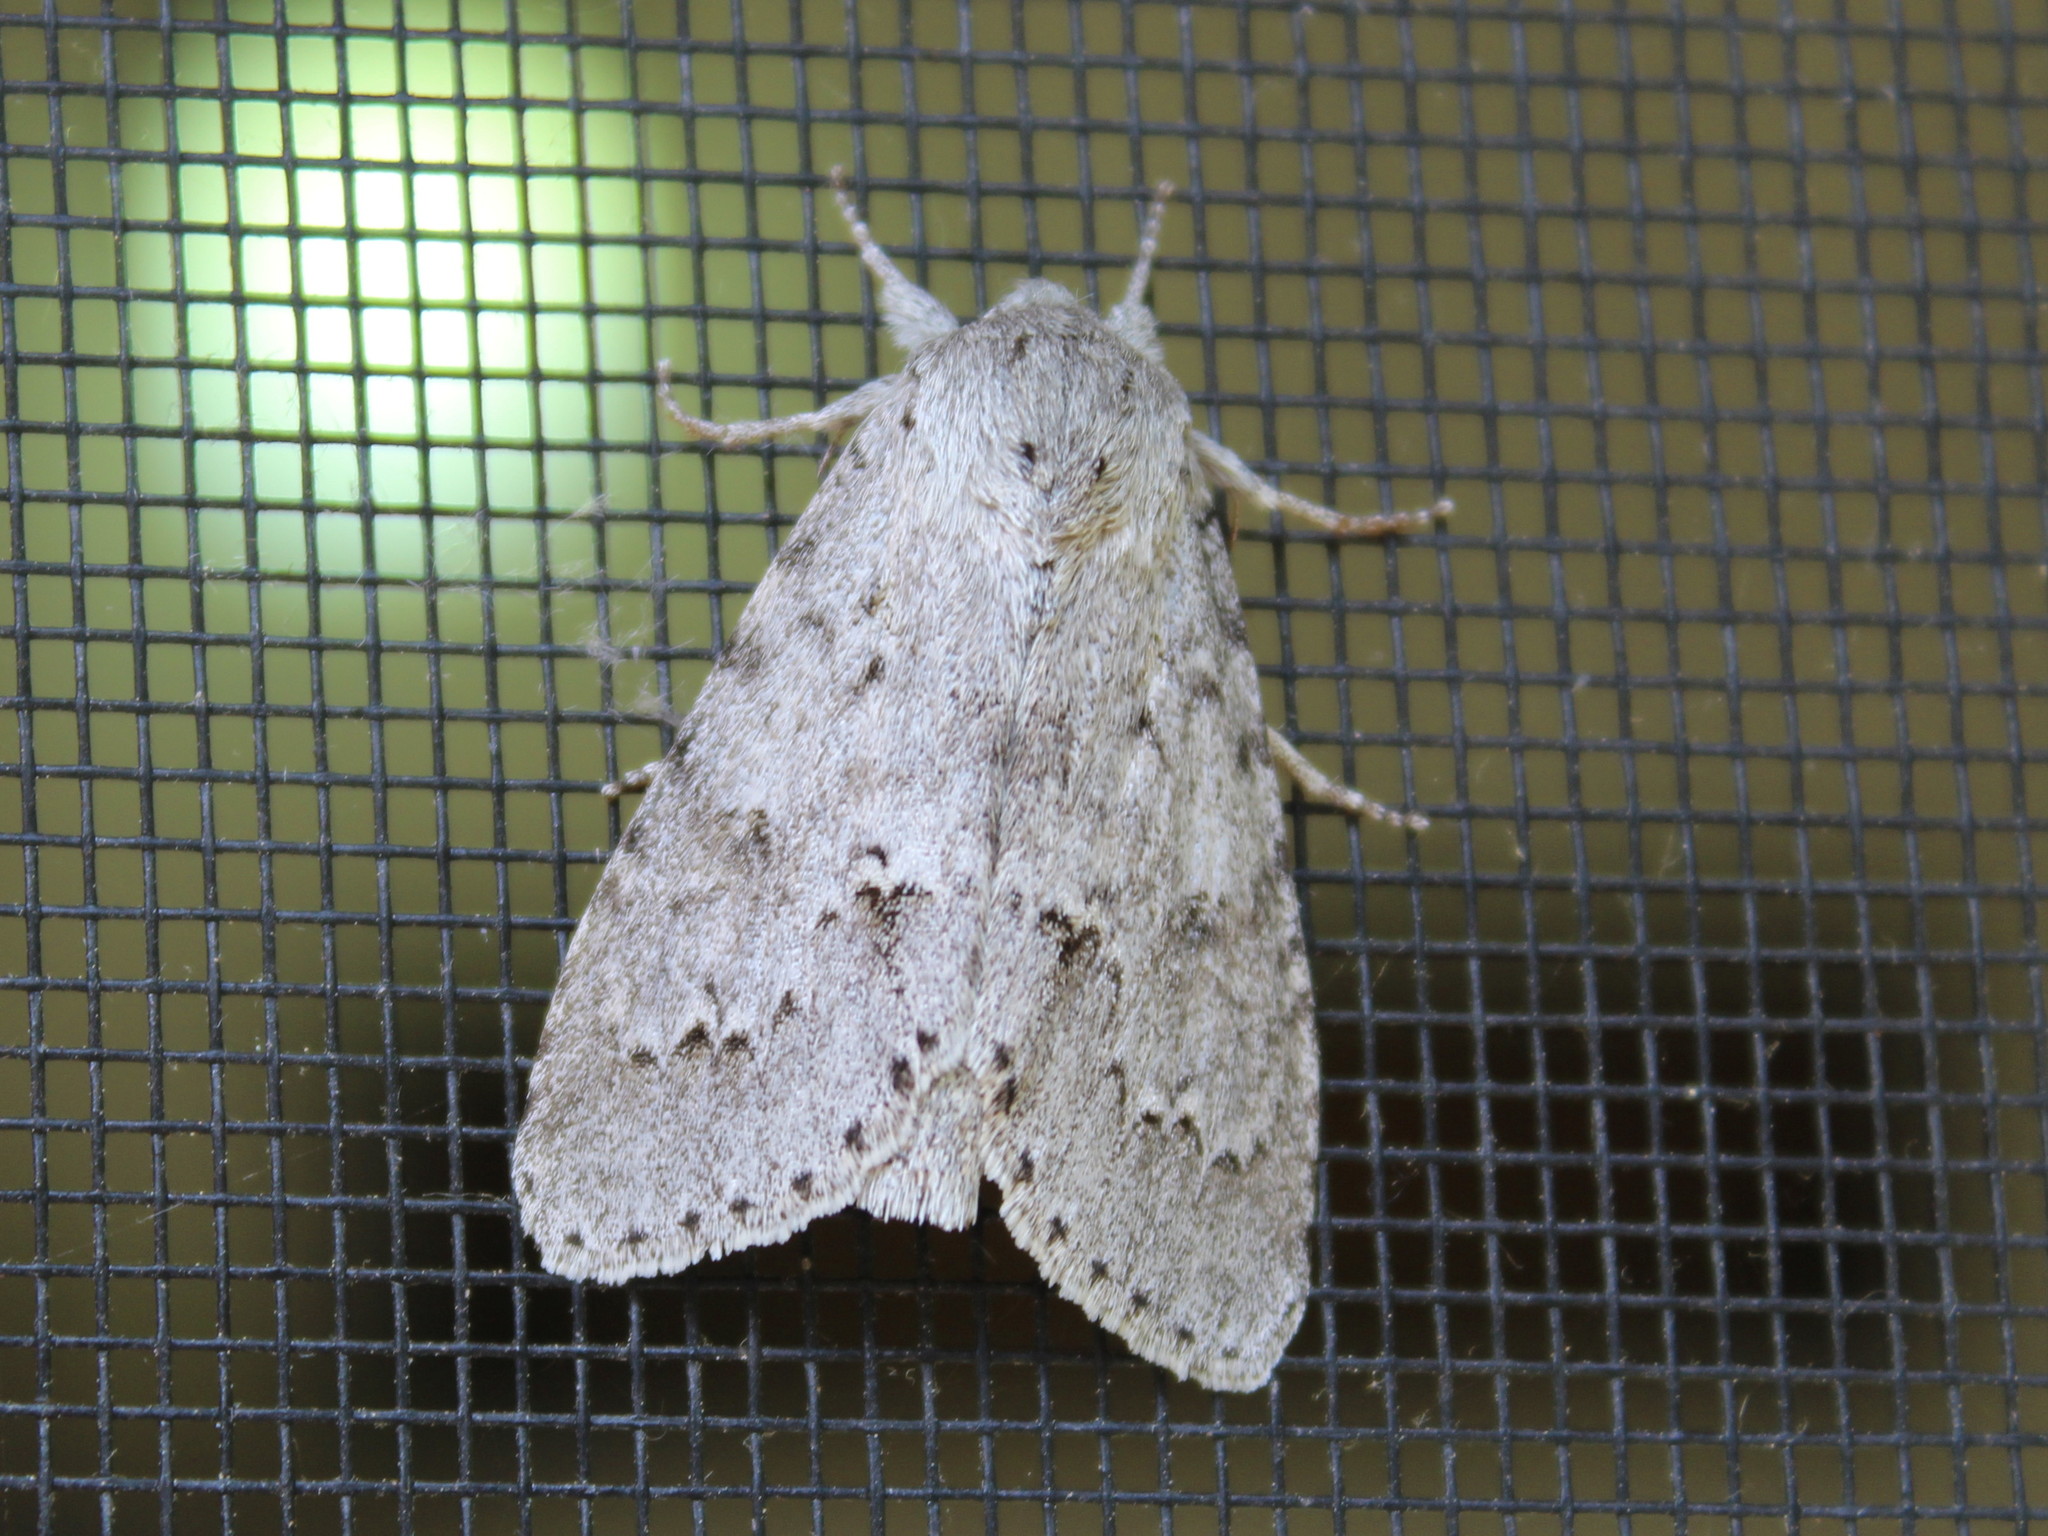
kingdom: Animalia
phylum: Arthropoda
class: Insecta
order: Lepidoptera
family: Noctuidae
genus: Acronicta
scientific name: Acronicta insita
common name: Large gray dagger
